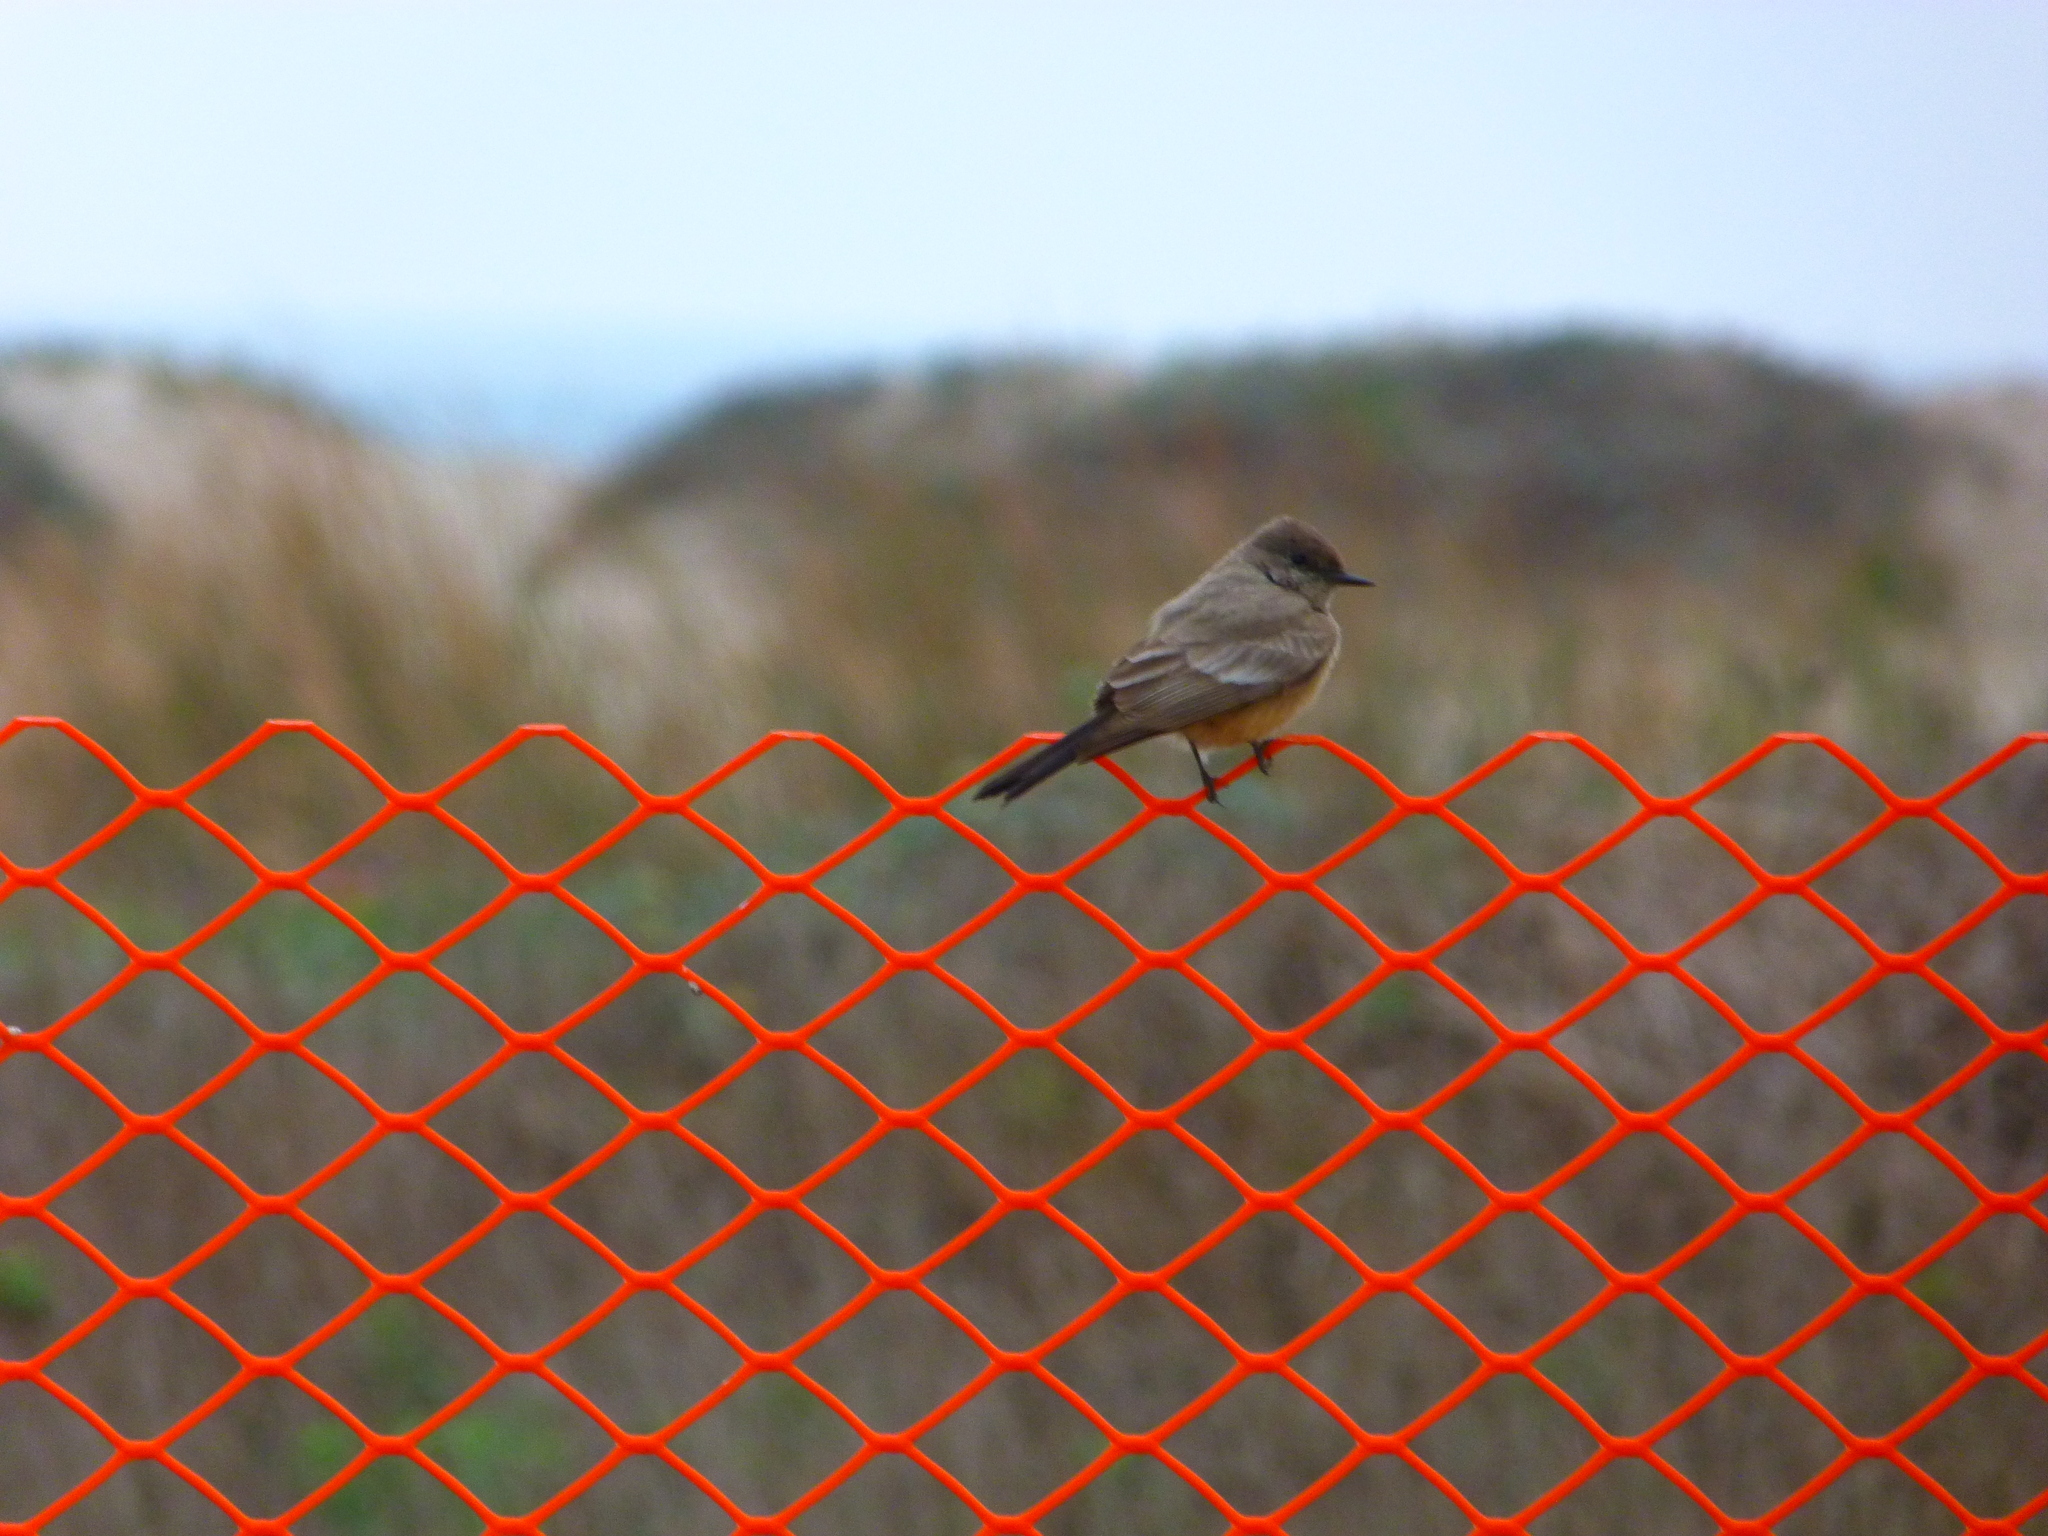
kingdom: Animalia
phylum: Chordata
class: Aves
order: Passeriformes
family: Tyrannidae
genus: Sayornis
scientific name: Sayornis saya
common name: Say's phoebe
